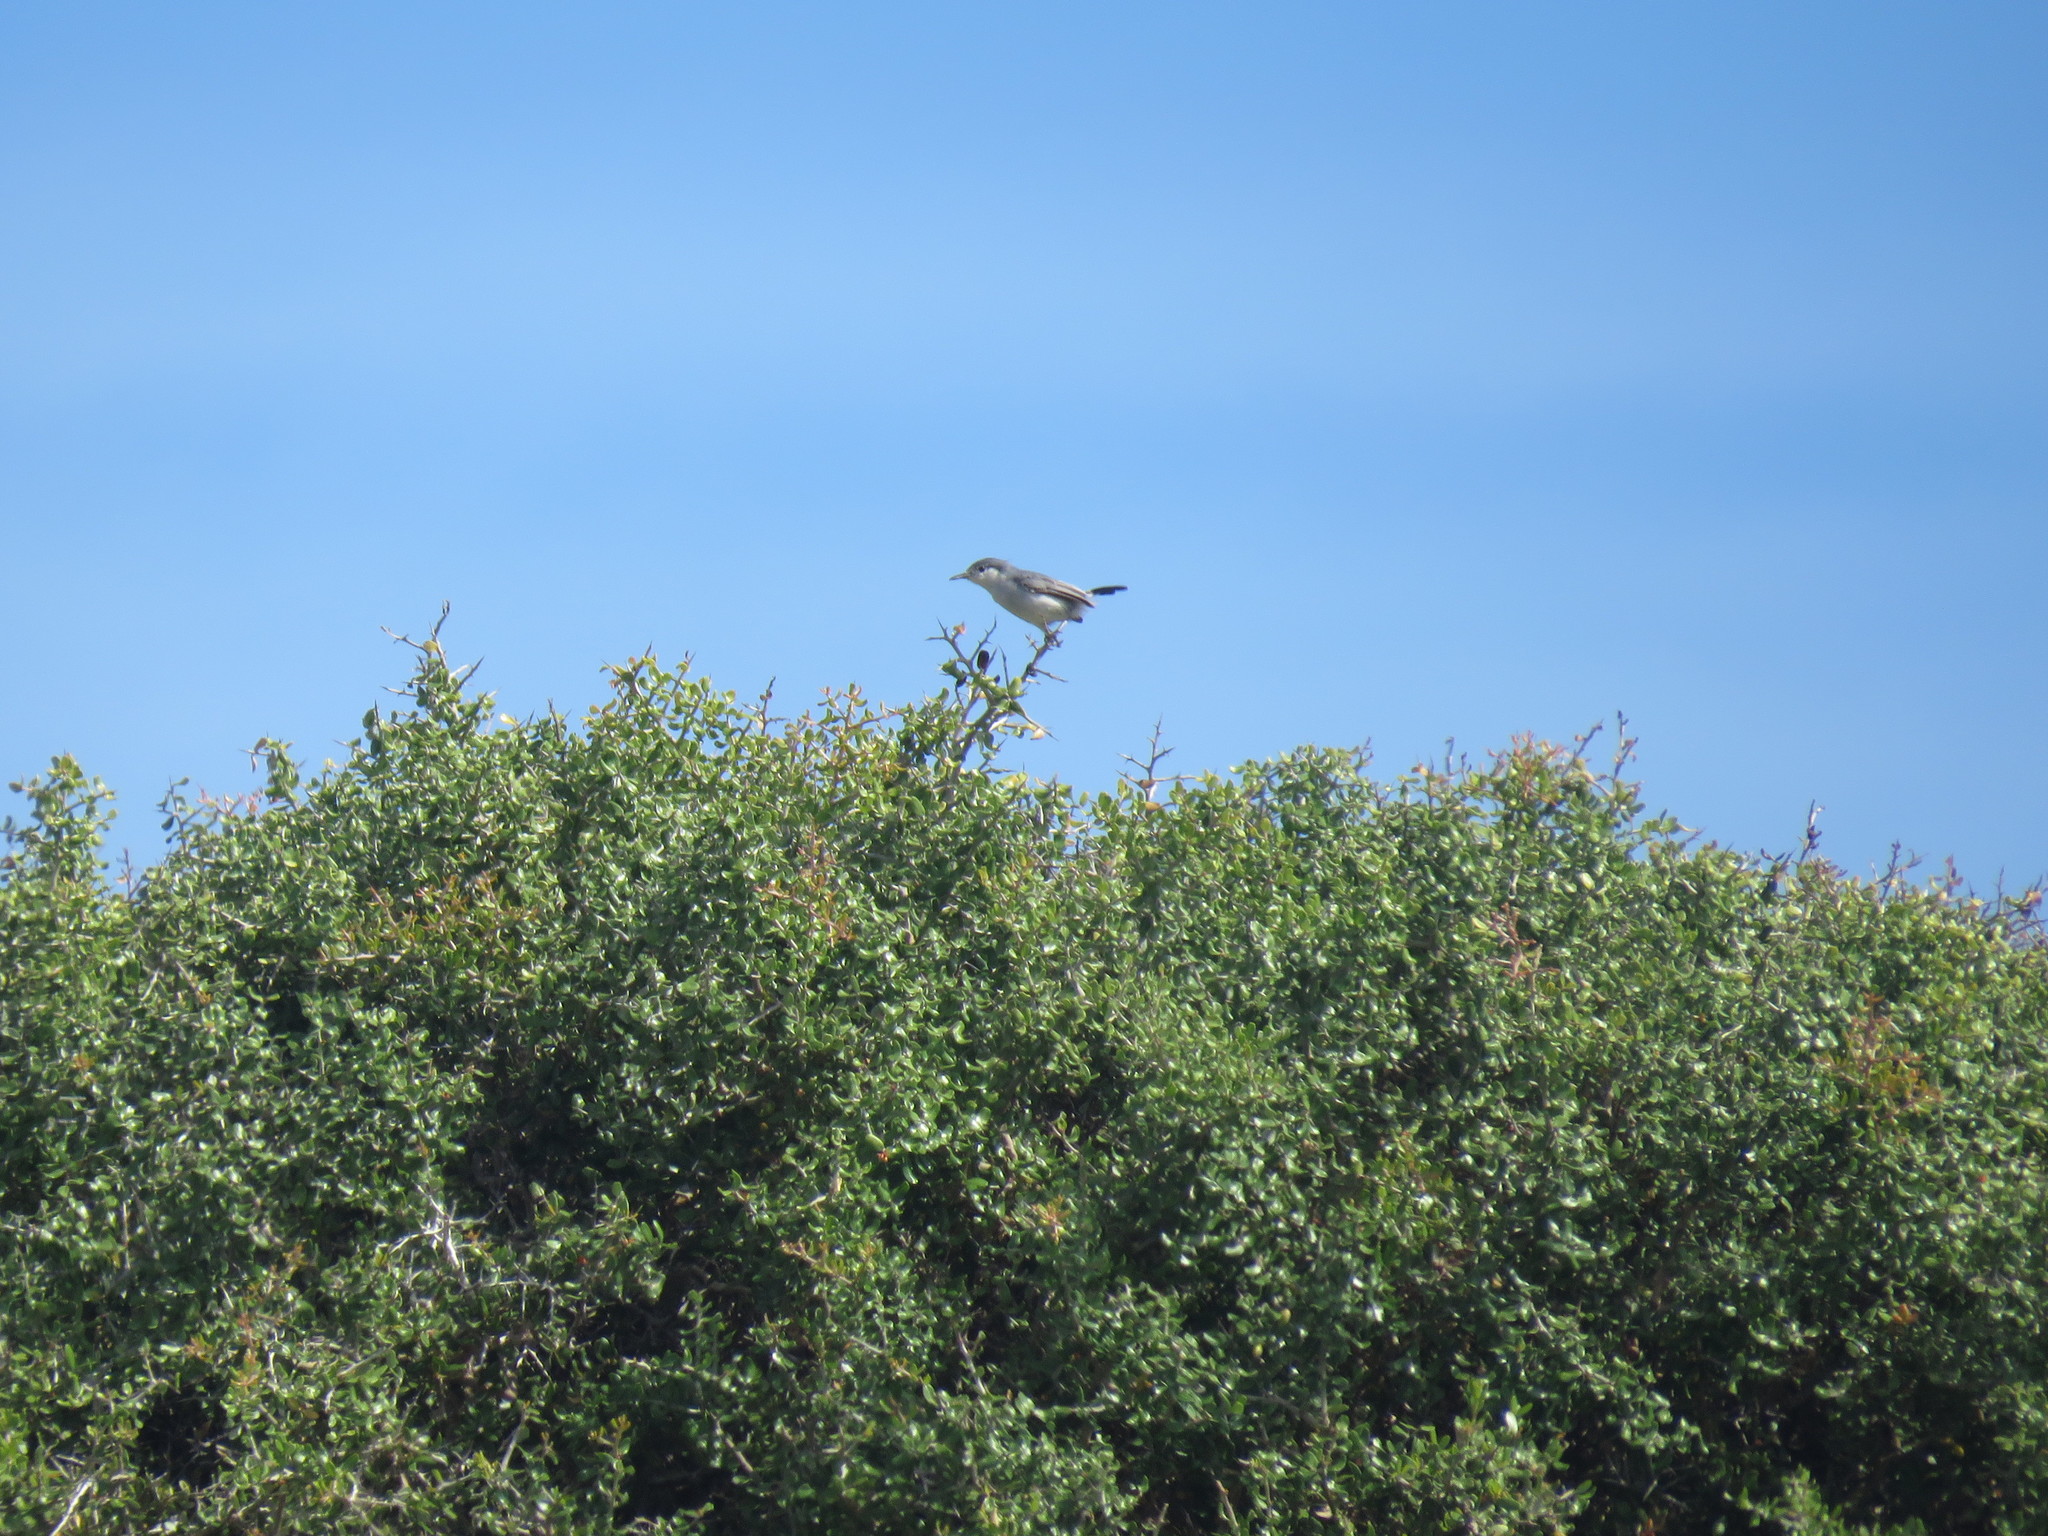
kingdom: Animalia
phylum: Chordata
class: Aves
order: Passeriformes
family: Polioptilidae
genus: Polioptila
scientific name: Polioptila plumbea
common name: Tropical gnatcatcher
